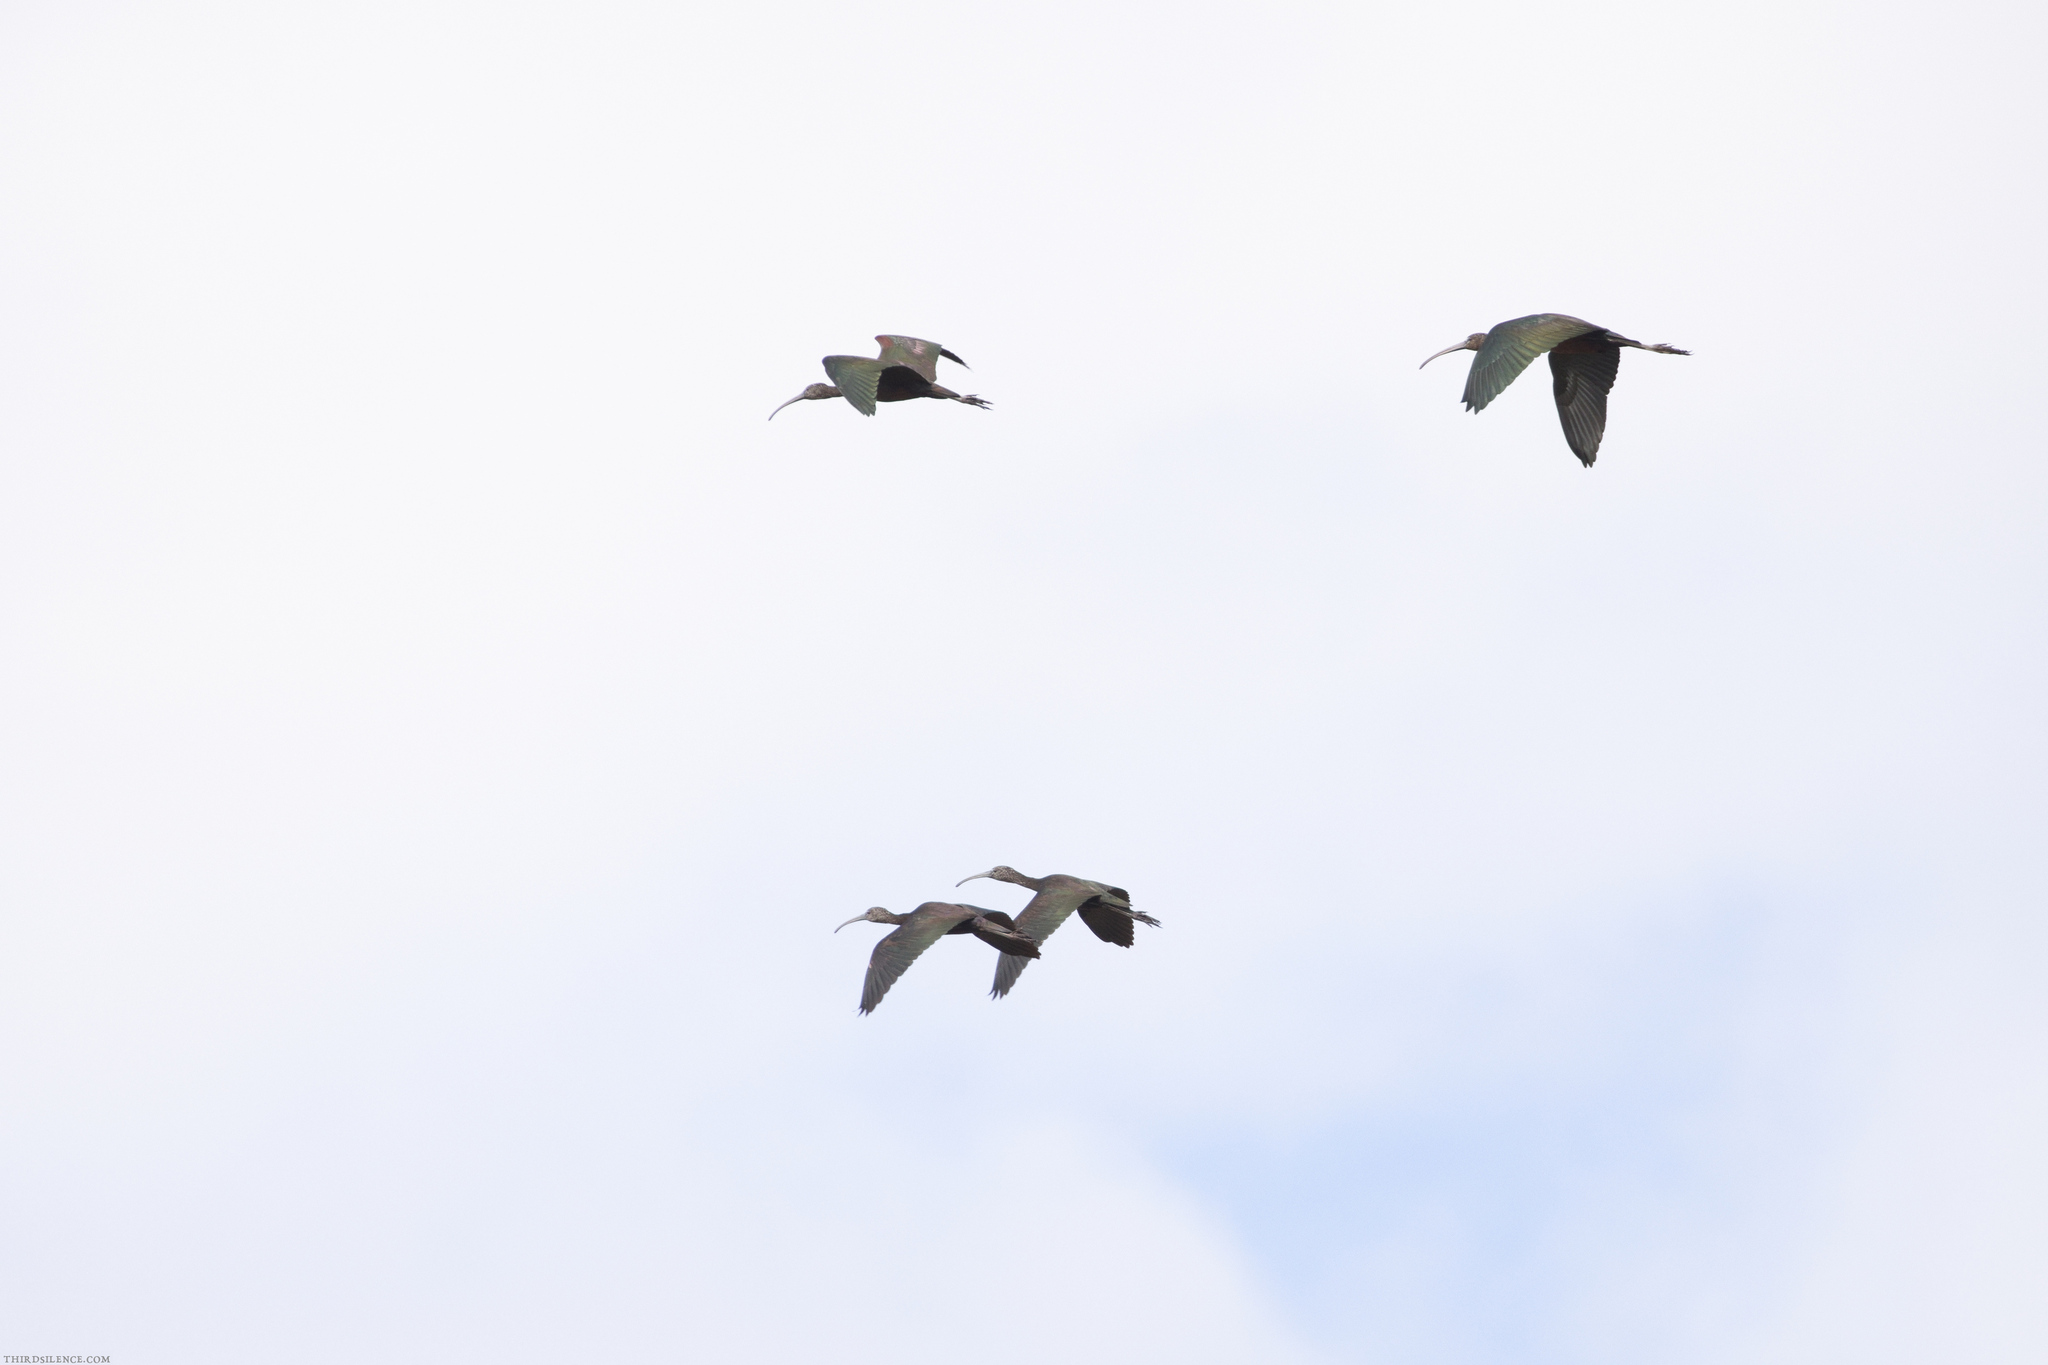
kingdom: Animalia
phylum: Chordata
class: Aves
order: Pelecaniformes
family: Threskiornithidae
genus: Plegadis
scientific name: Plegadis falcinellus
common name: Glossy ibis
